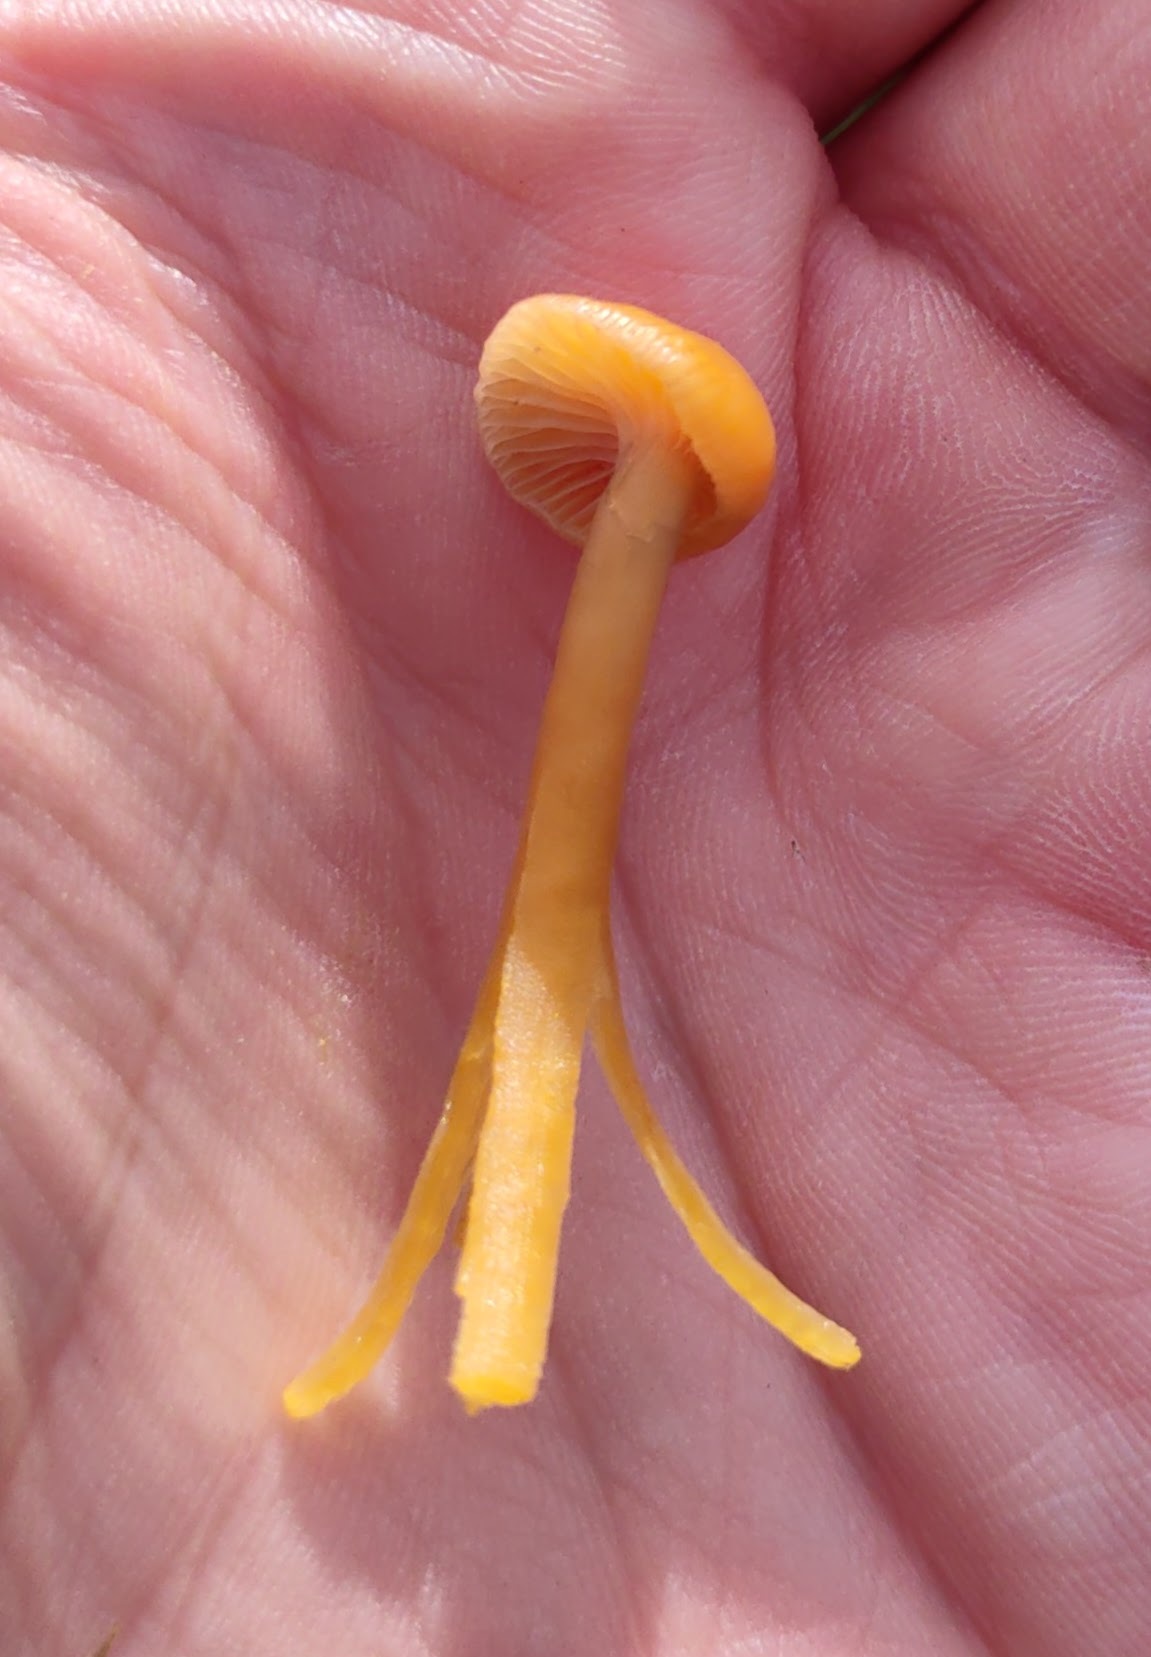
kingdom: Fungi
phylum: Basidiomycota
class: Agaricomycetes
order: Agaricales
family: Hygrophoraceae
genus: Gliophorus
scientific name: Gliophorus laetus
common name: Heath waxcap
